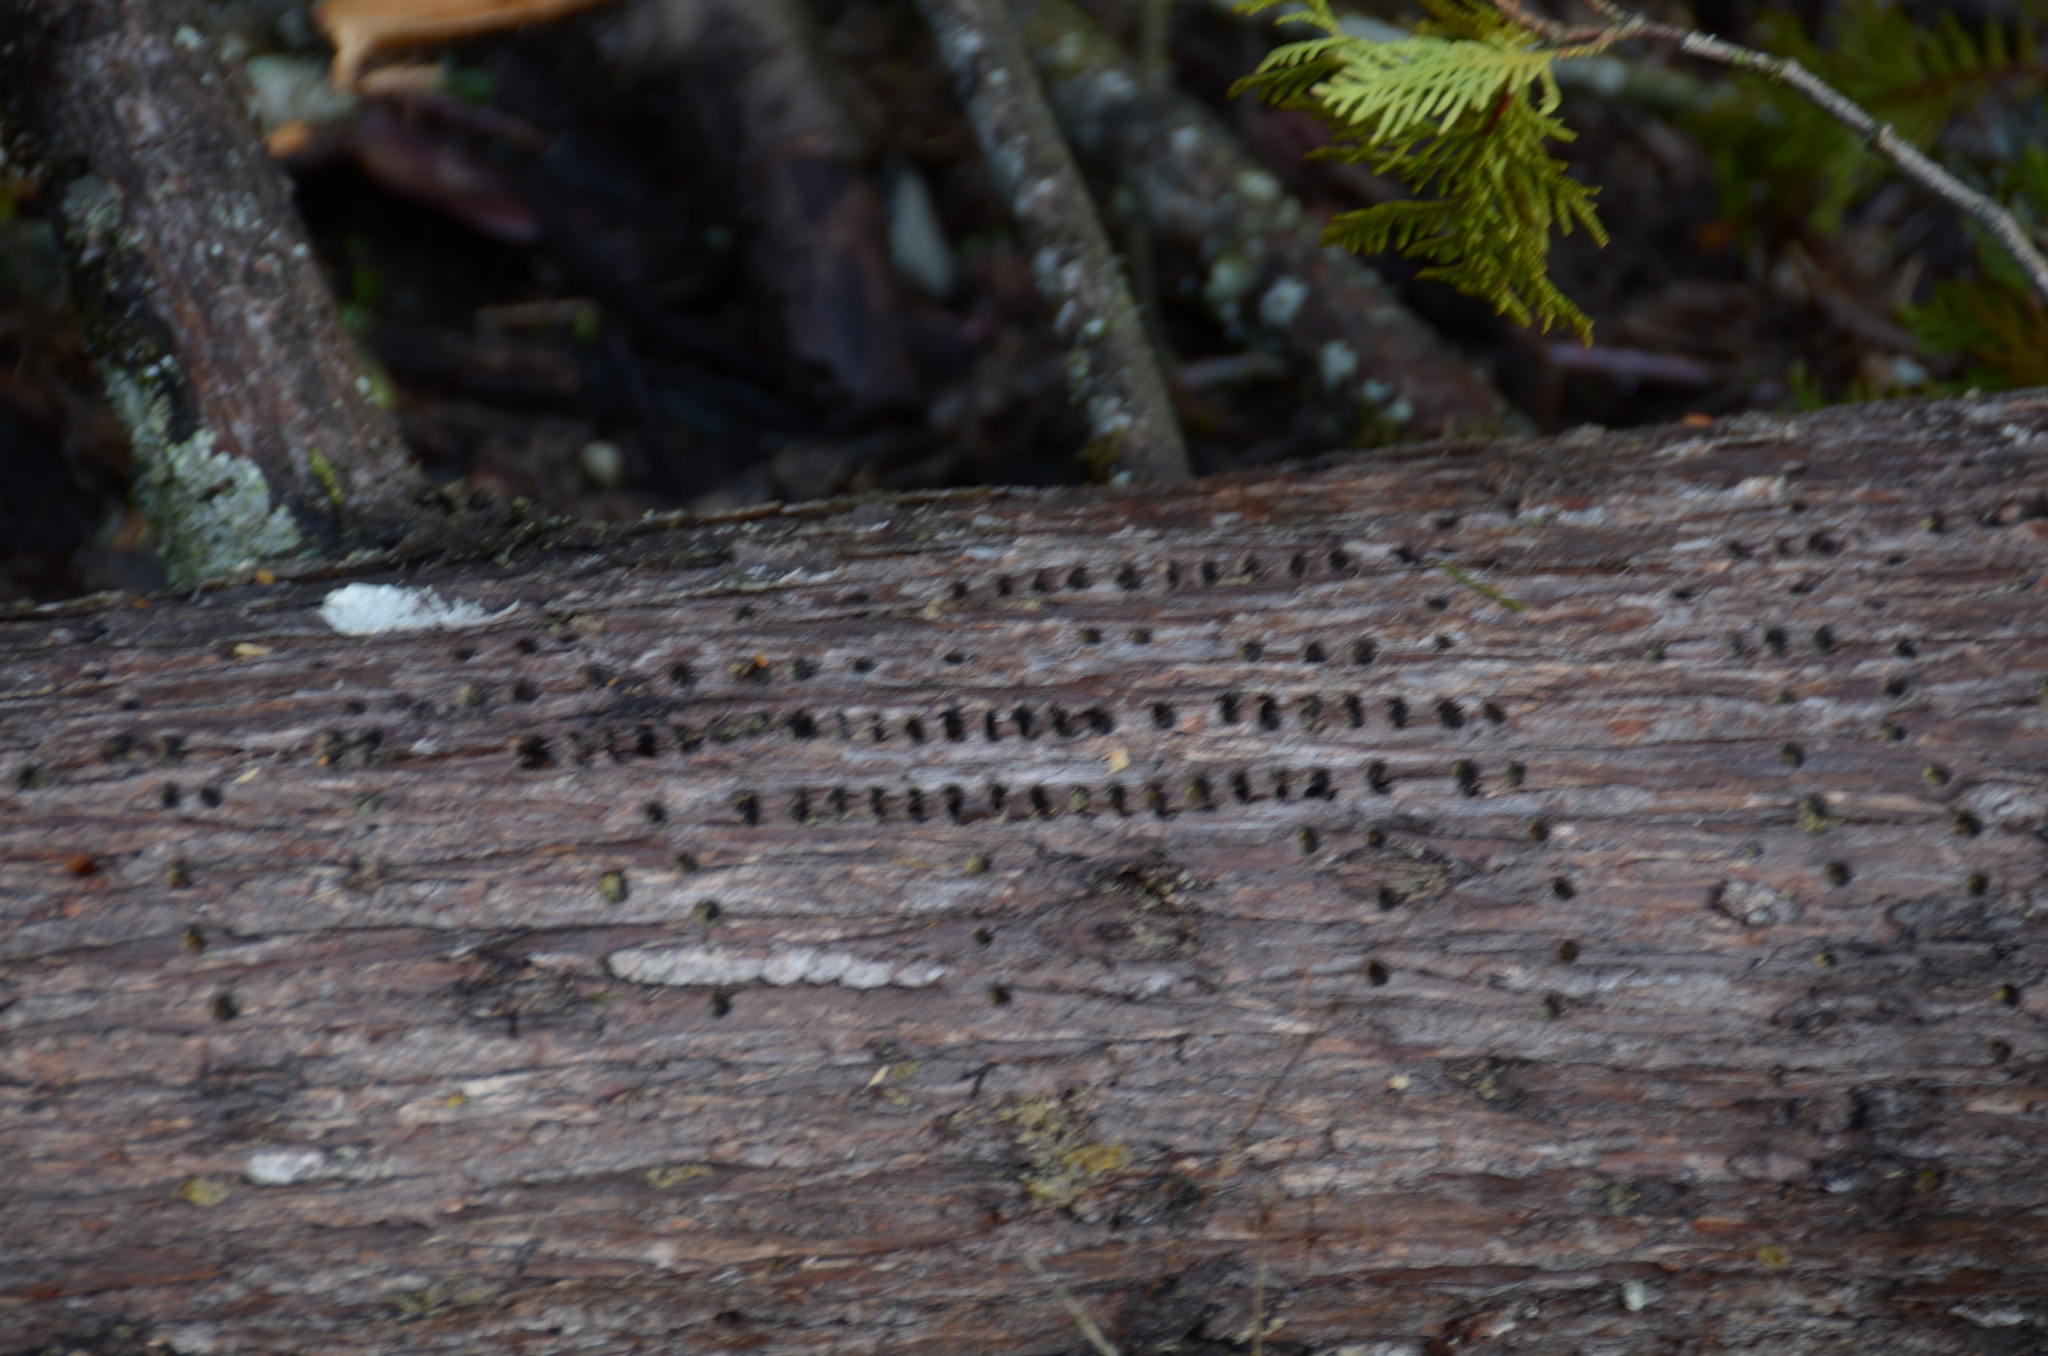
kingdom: Animalia
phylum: Chordata
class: Aves
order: Piciformes
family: Picidae
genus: Sphyrapicus
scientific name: Sphyrapicus ruber
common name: Red-breasted sapsucker
